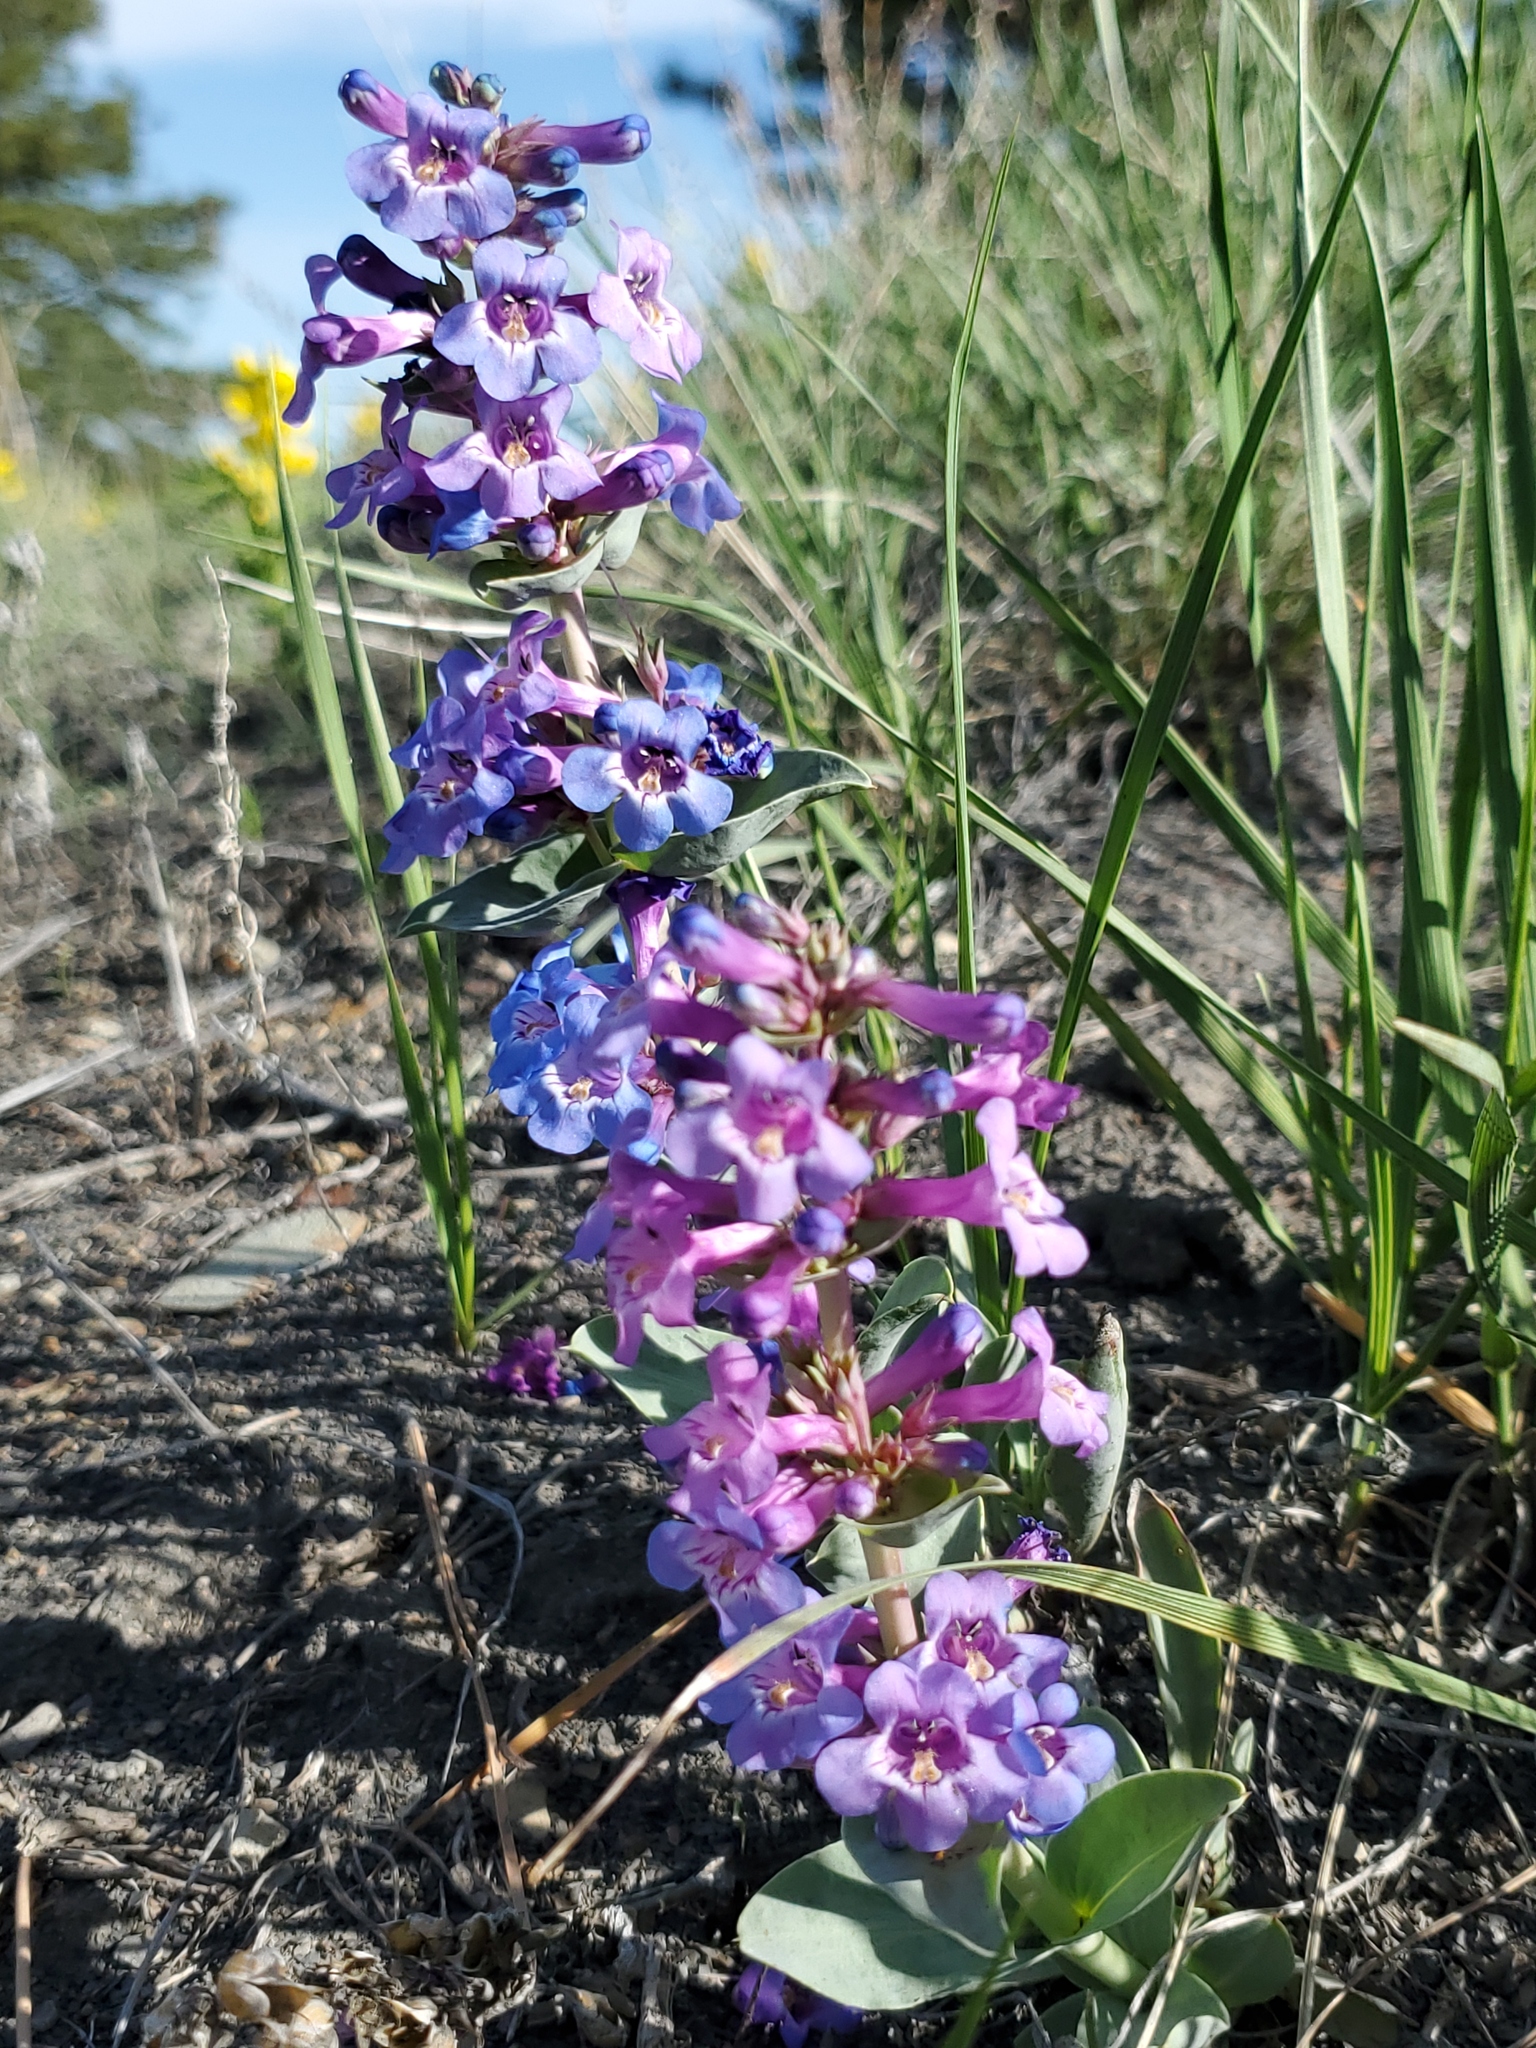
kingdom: Plantae
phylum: Tracheophyta
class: Magnoliopsida
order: Lamiales
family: Plantaginaceae
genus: Penstemon
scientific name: Penstemon nitidus
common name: Shining penstemon
